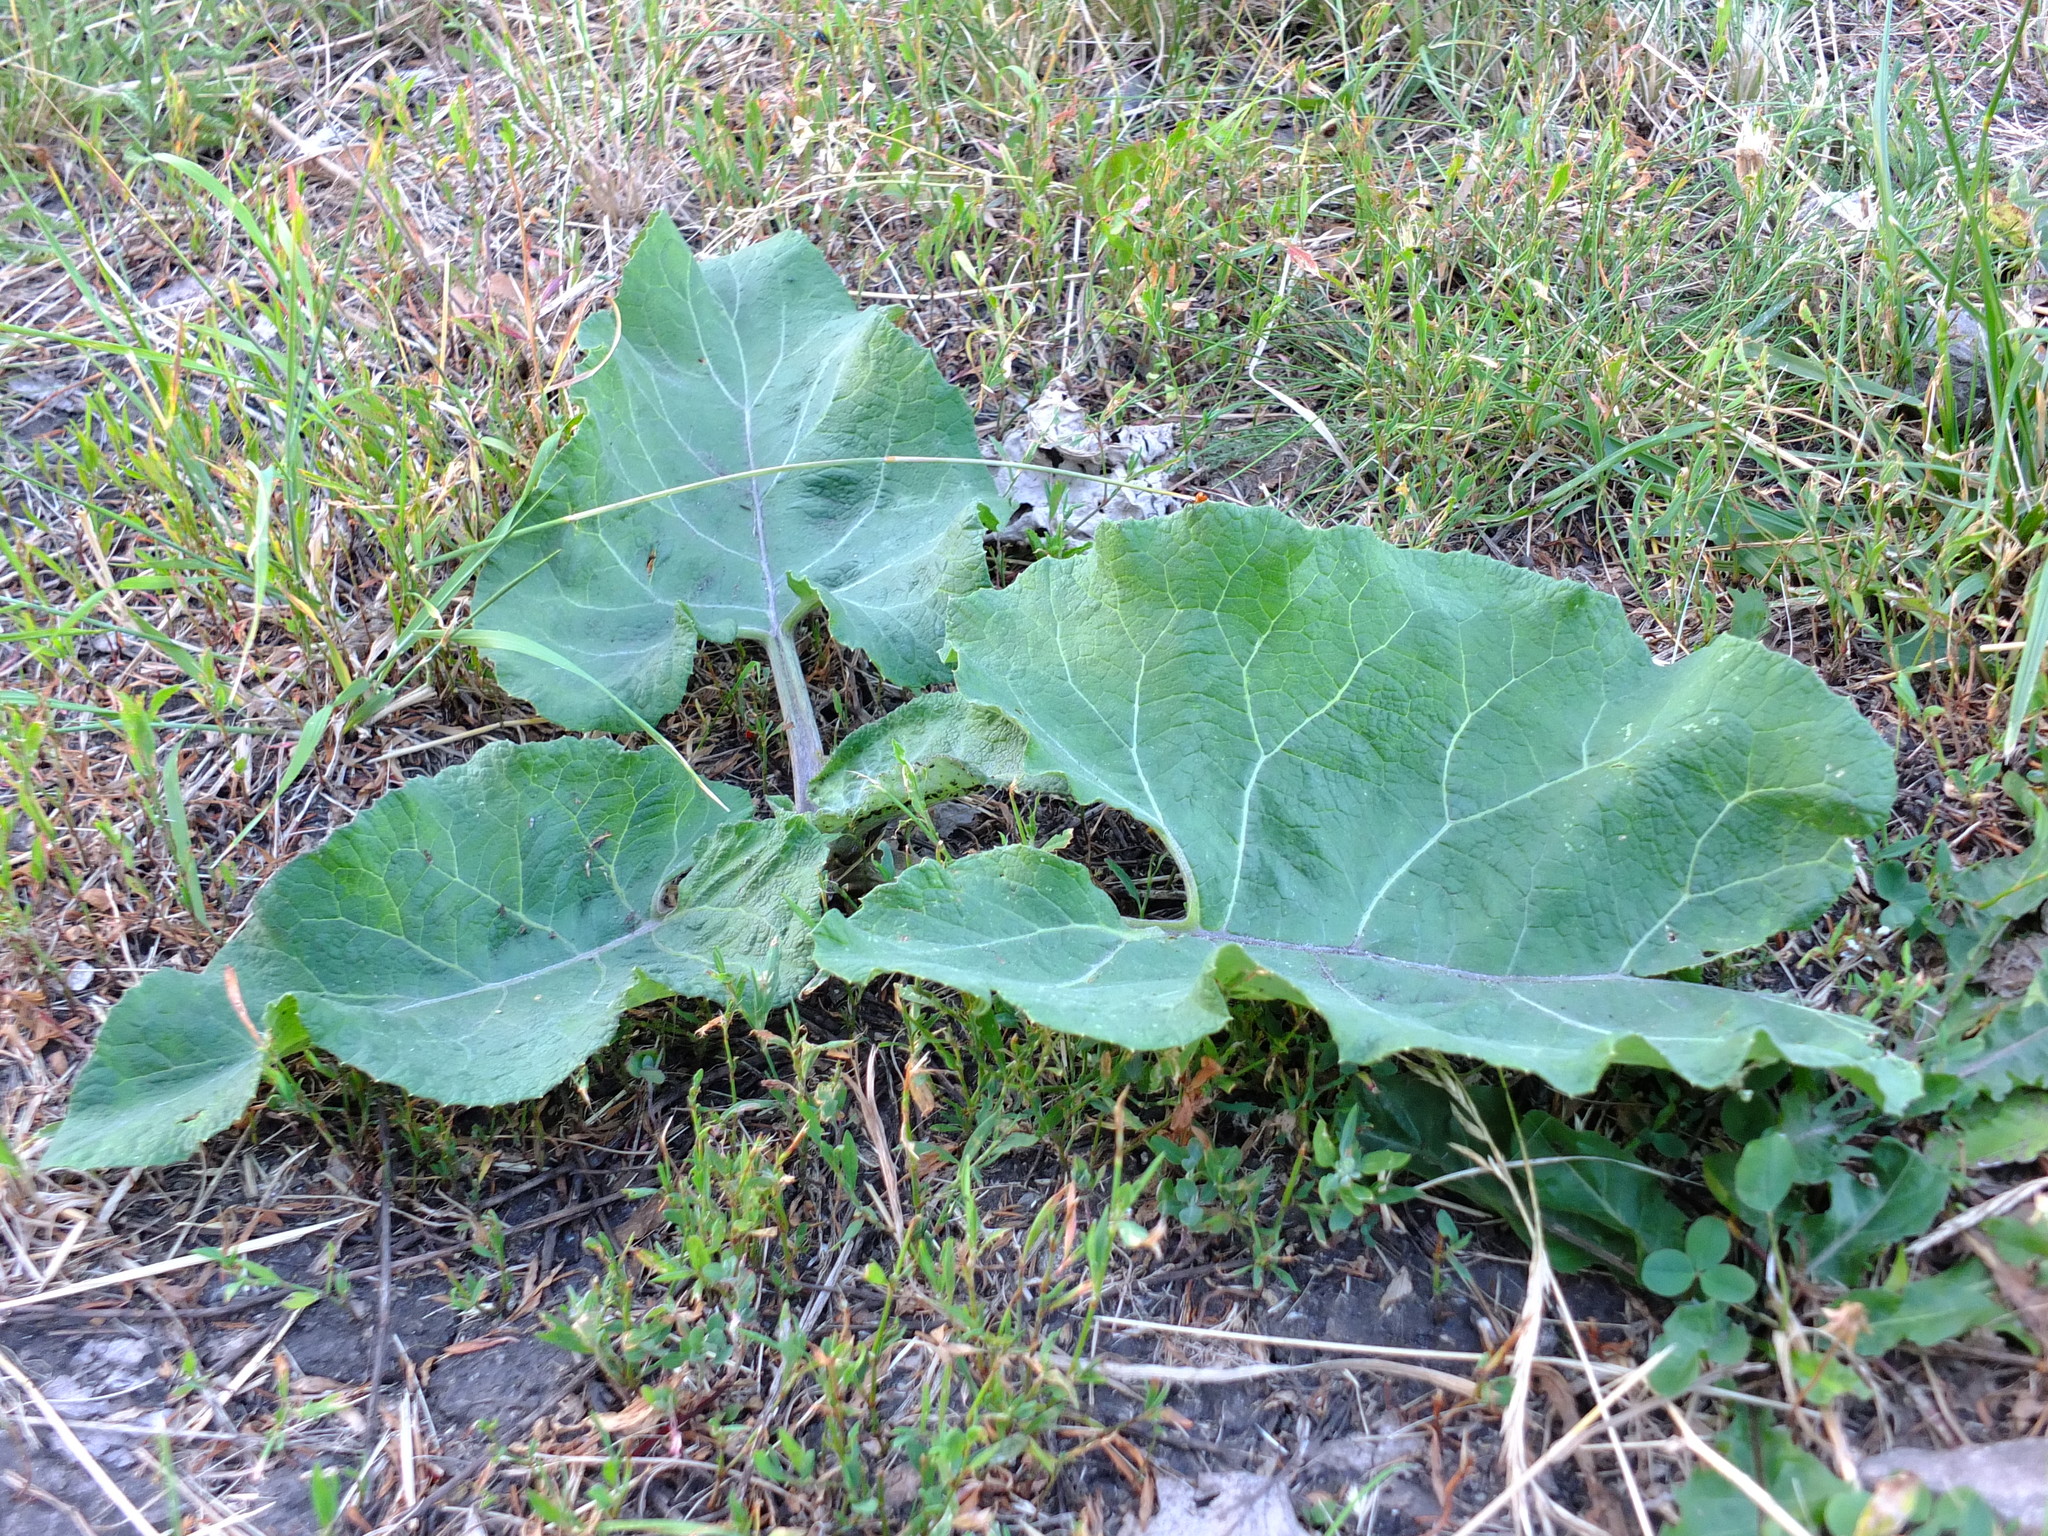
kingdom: Plantae
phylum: Tracheophyta
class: Magnoliopsida
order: Asterales
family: Asteraceae
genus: Arctium
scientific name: Arctium
